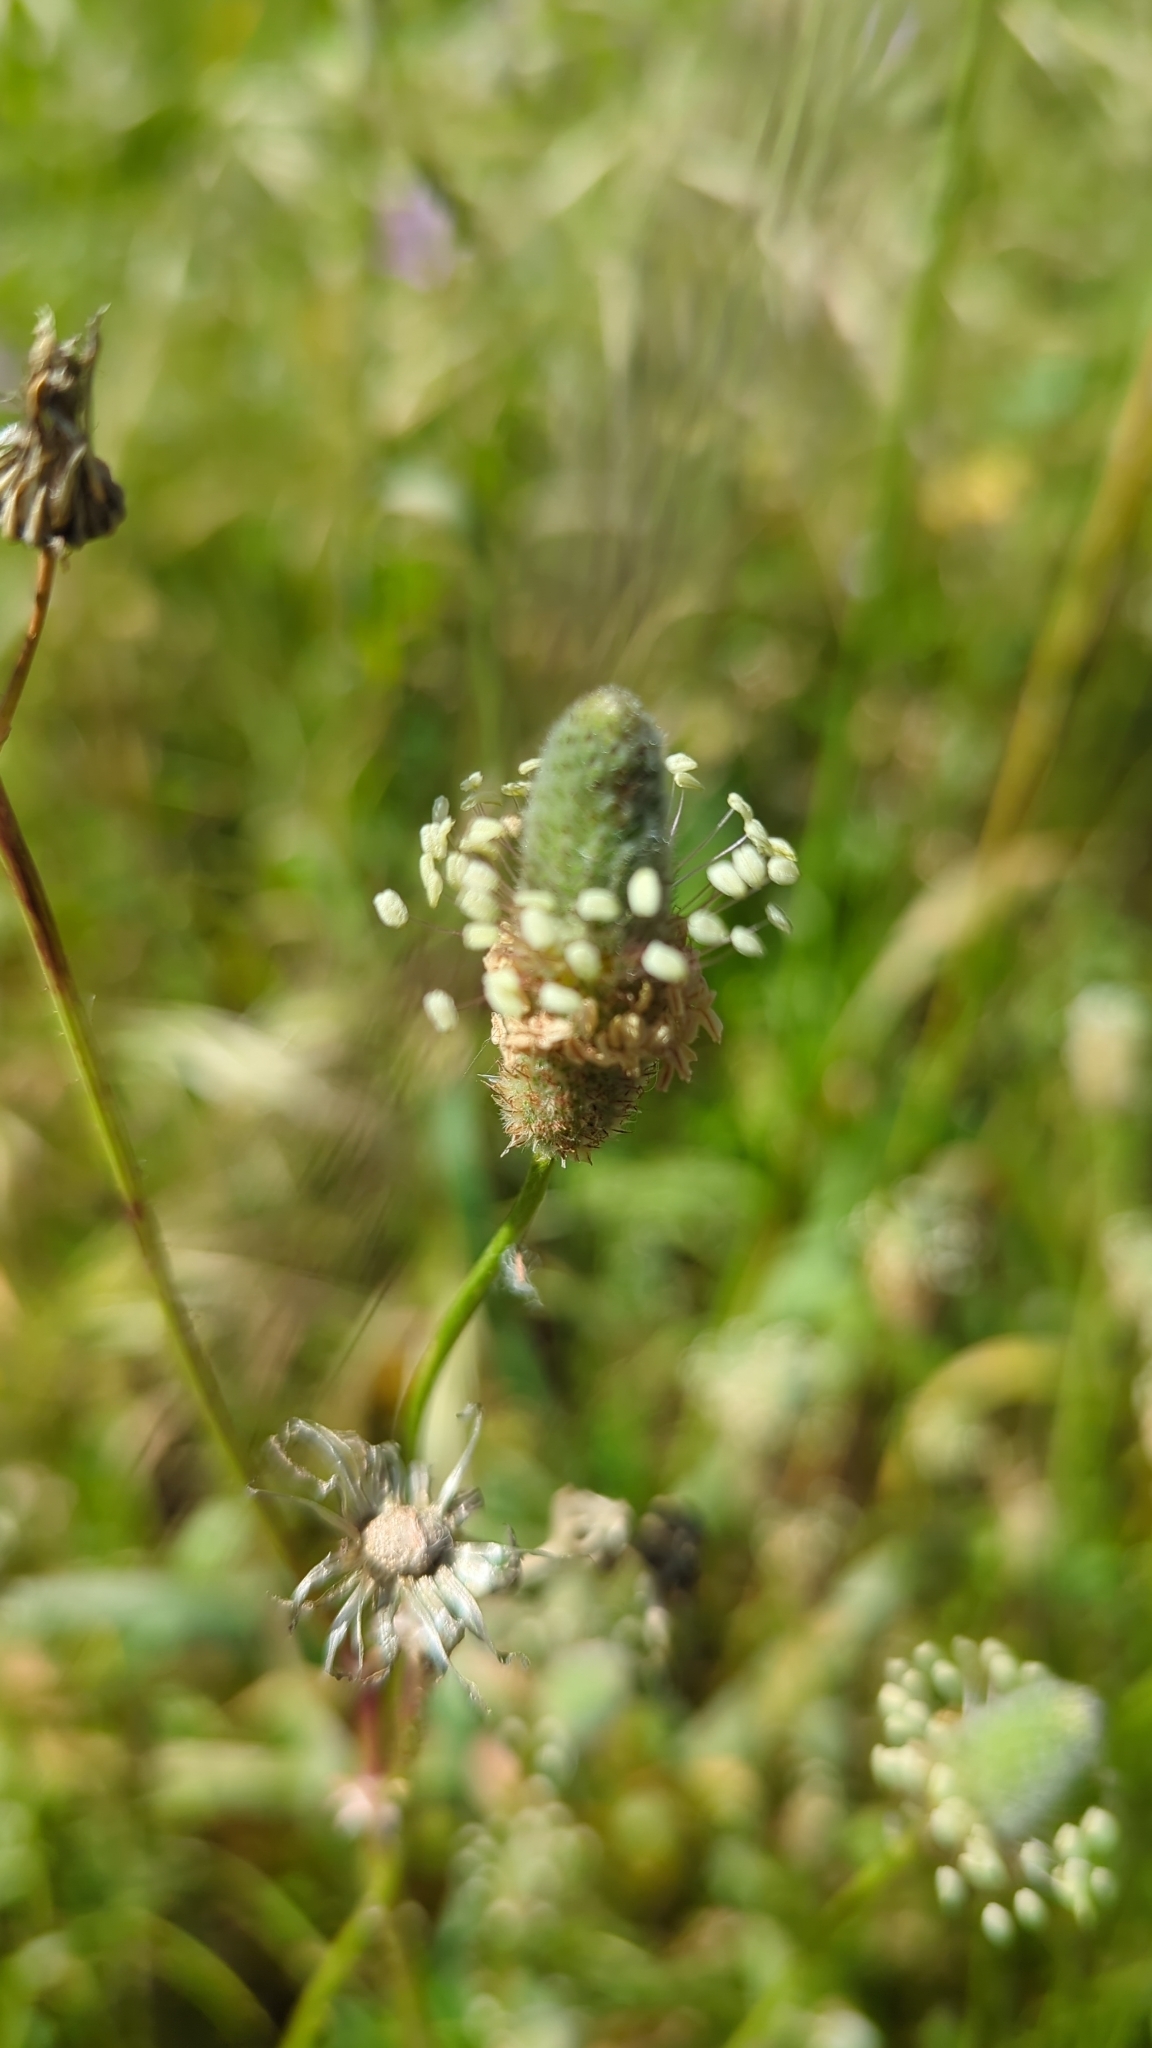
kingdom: Plantae
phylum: Tracheophyta
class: Magnoliopsida
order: Lamiales
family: Plantaginaceae
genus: Plantago
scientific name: Plantago lanceolata
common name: Ribwort plantain
